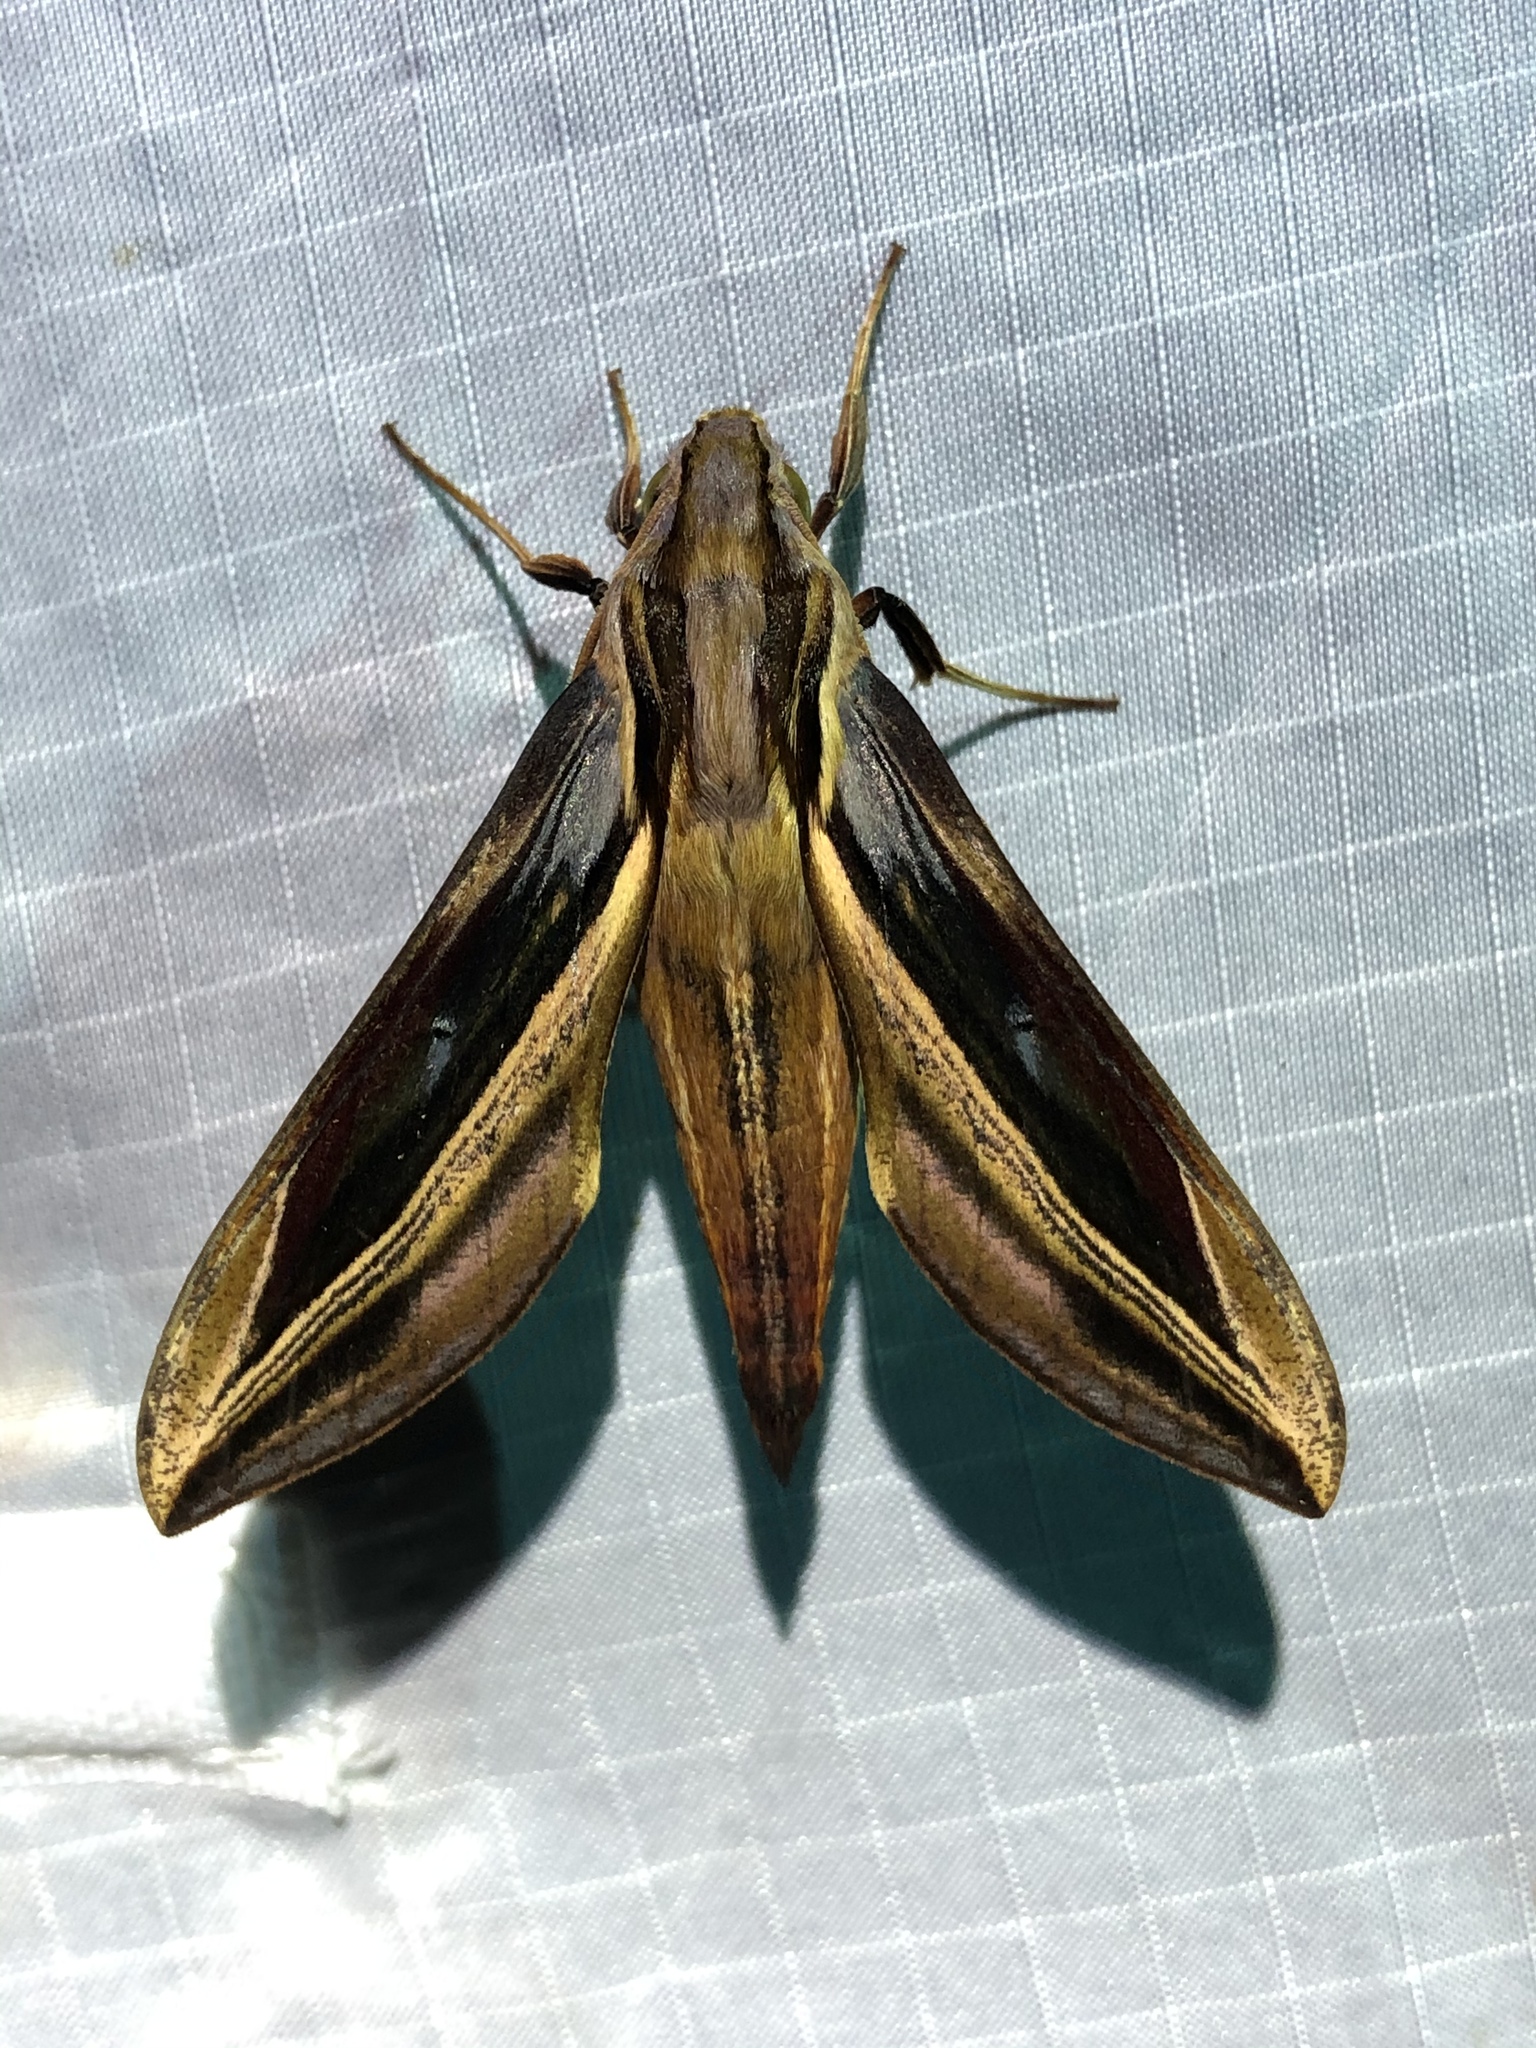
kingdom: Animalia
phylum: Arthropoda
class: Insecta
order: Lepidoptera
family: Sphingidae
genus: Xylophanes
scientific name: Xylophanes pyrrhus
